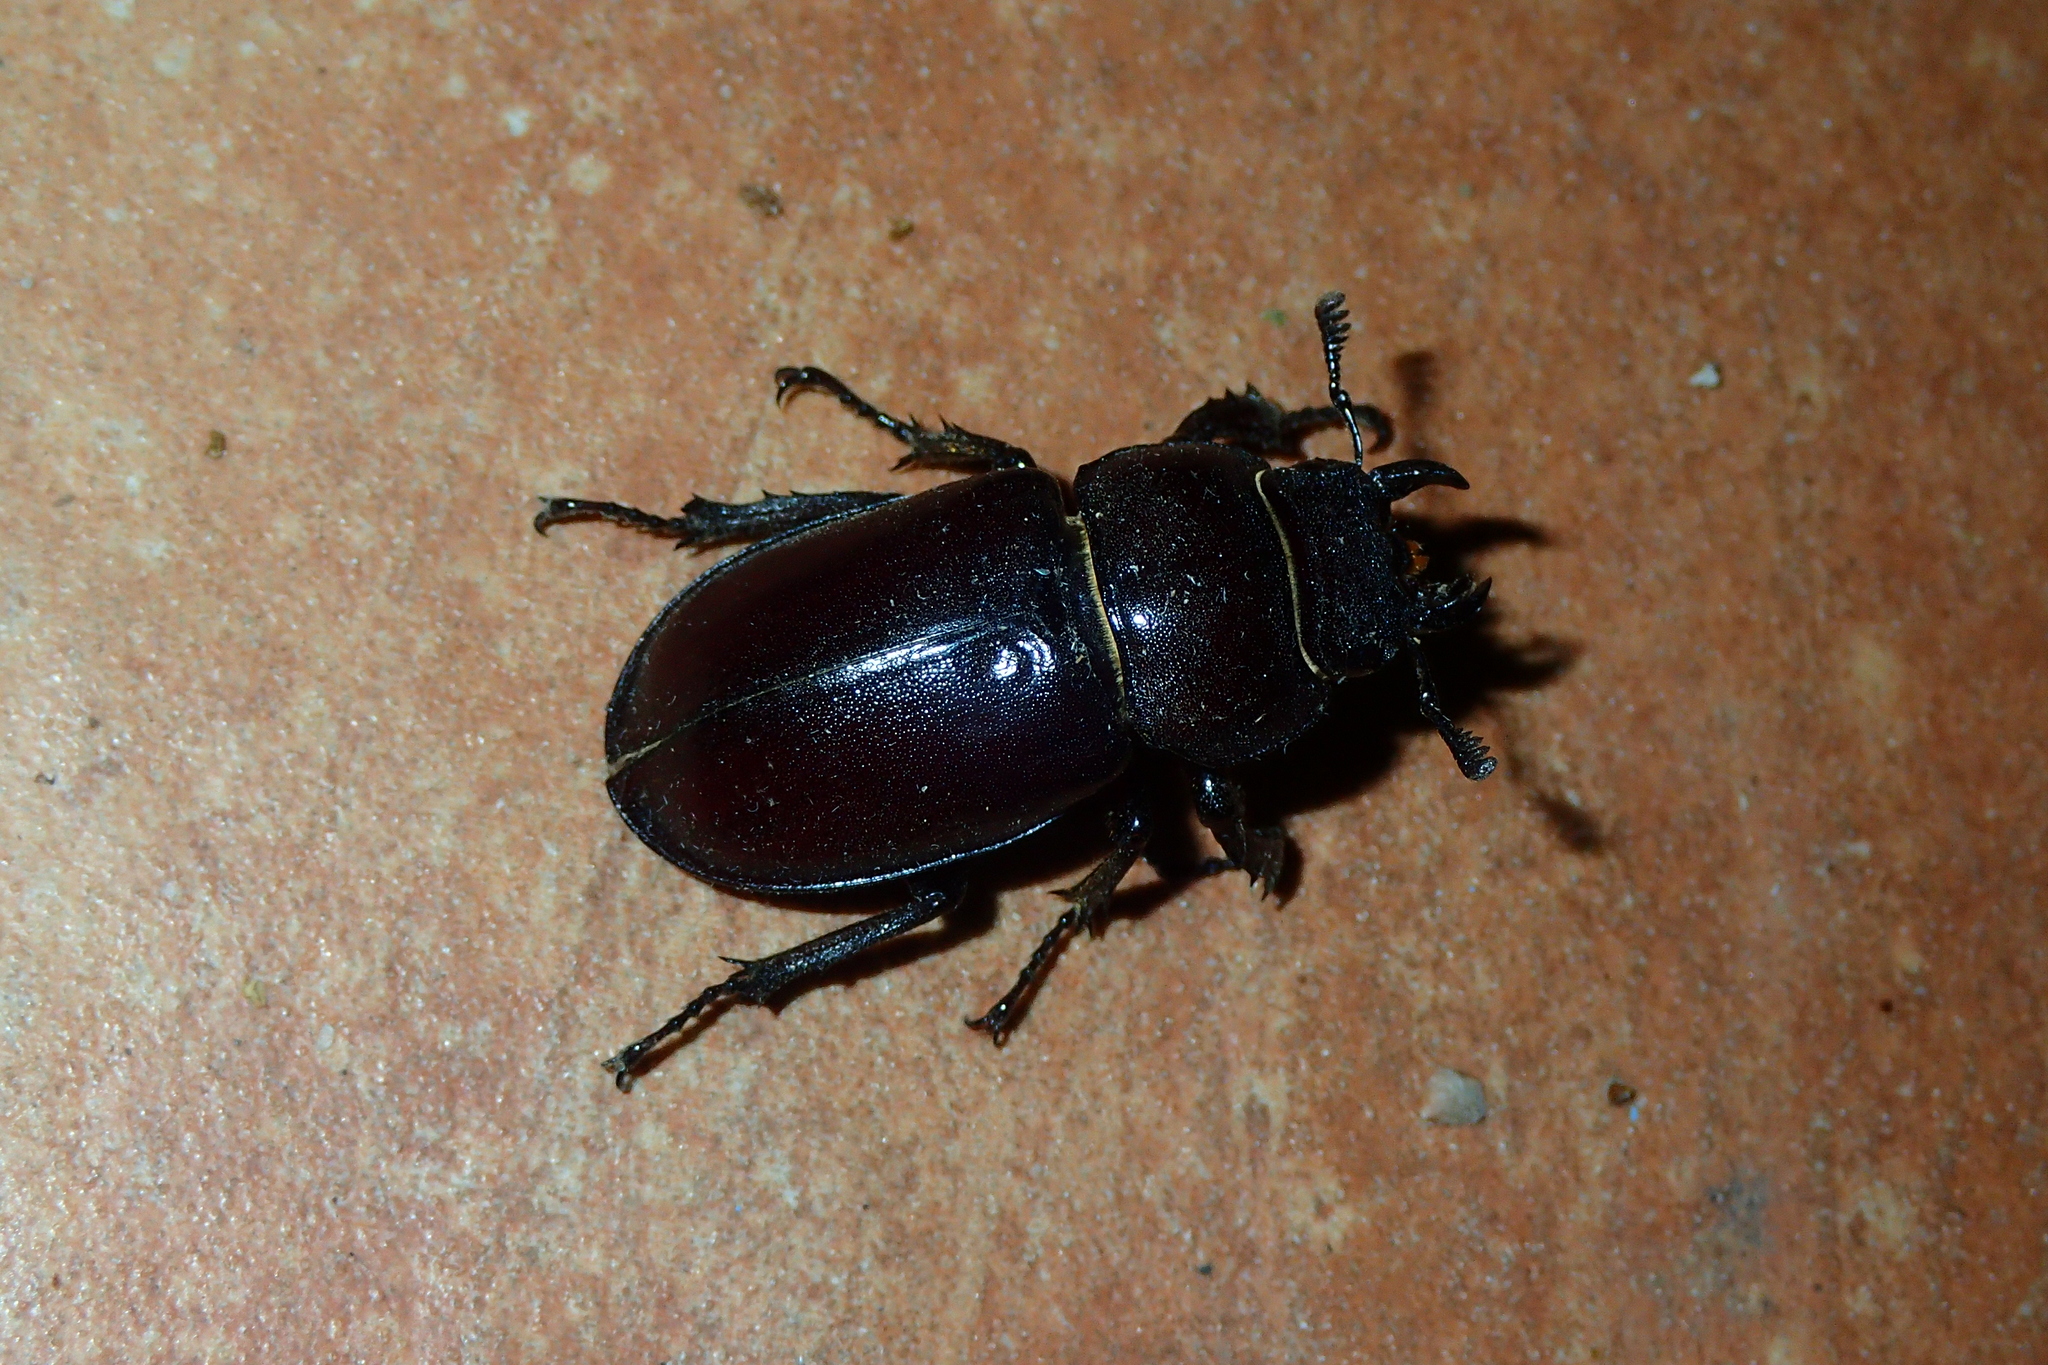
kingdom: Animalia
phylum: Arthropoda
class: Insecta
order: Coleoptera
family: Lucanidae
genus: Lucanus
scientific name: Lucanus cervus
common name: Stag beetle
